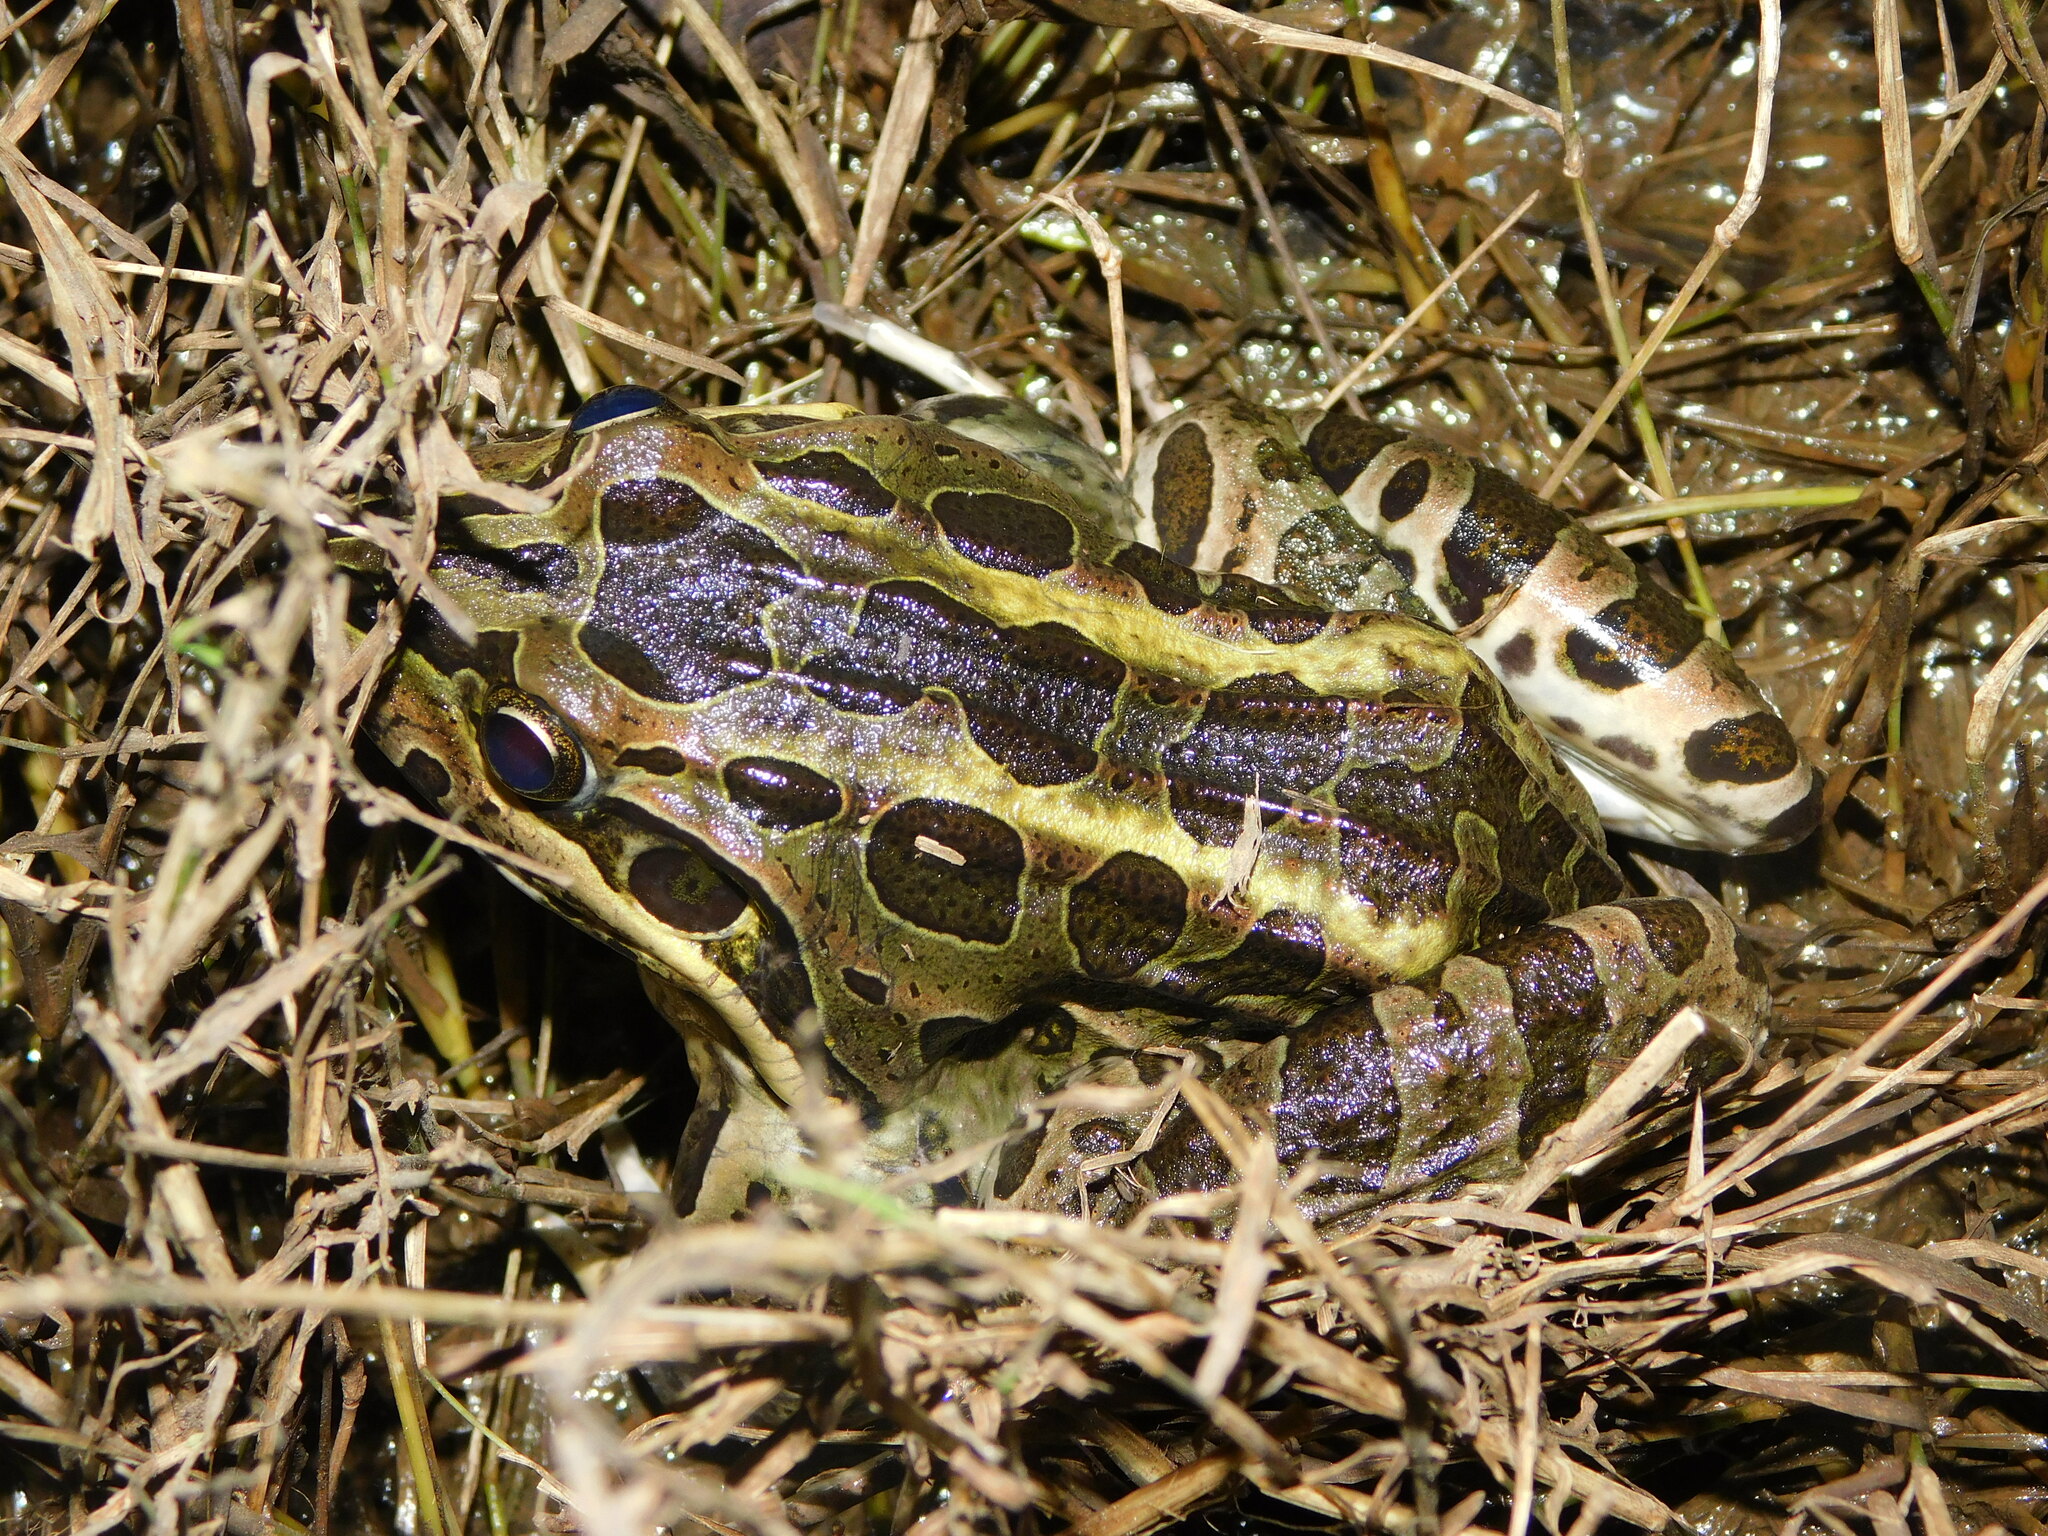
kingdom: Animalia
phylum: Chordata
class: Amphibia
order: Anura
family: Leptodactylidae
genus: Leptodactylus
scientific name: Leptodactylus luctator
